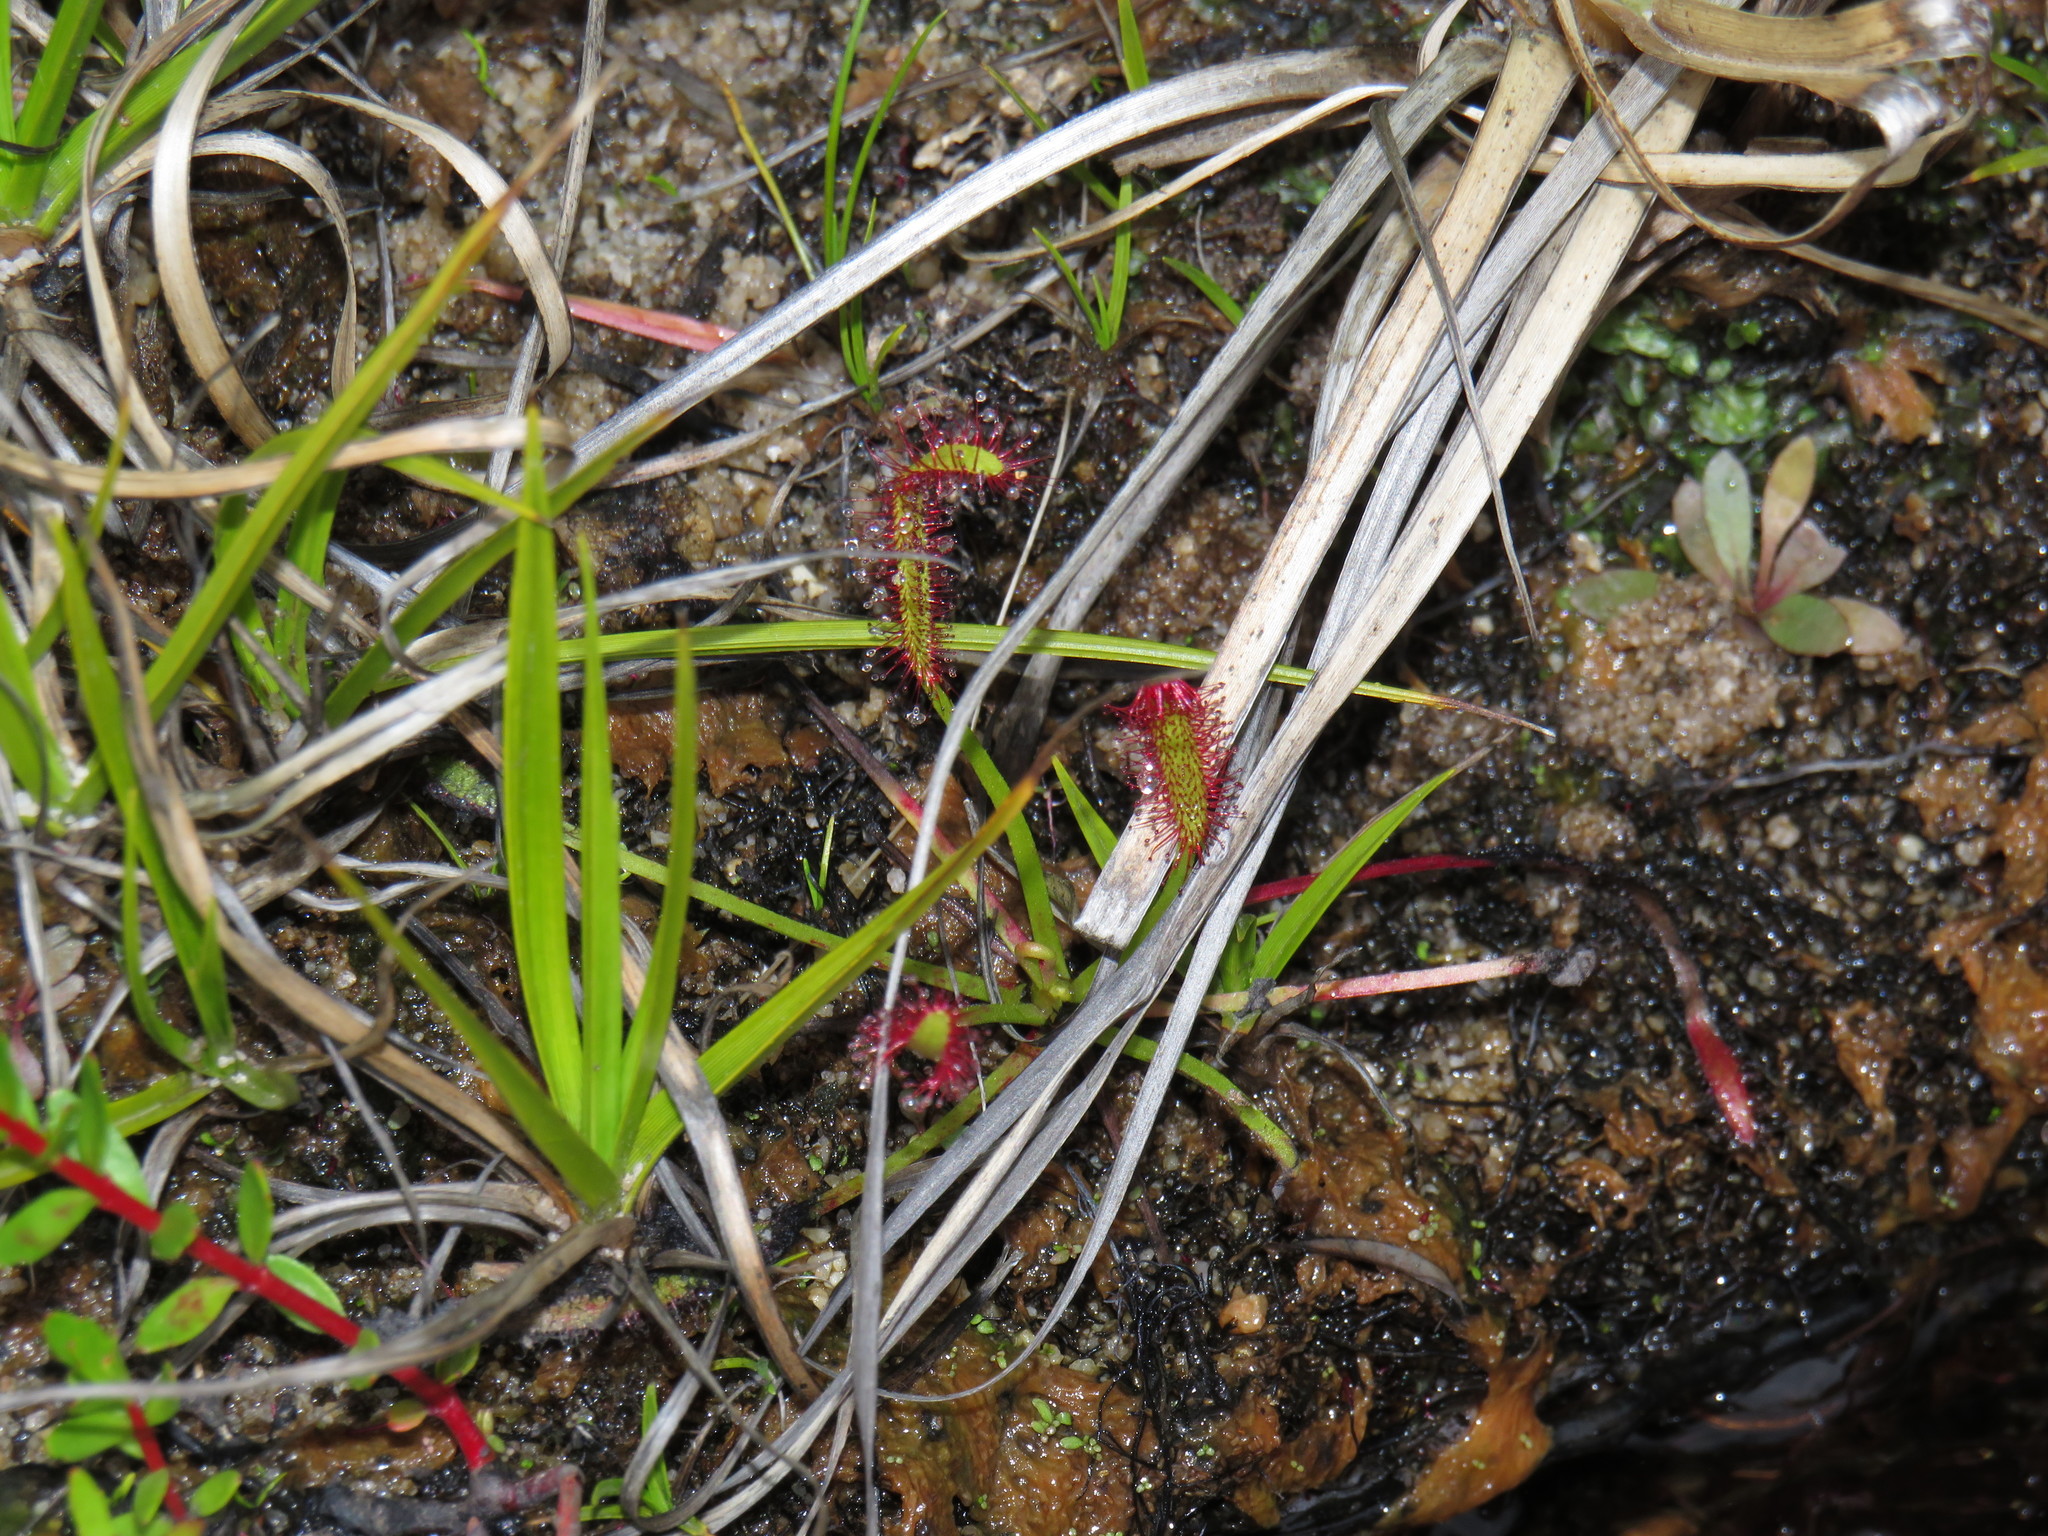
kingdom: Plantae
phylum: Tracheophyta
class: Magnoliopsida
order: Caryophyllales
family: Droseraceae
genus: Drosera
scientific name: Drosera capensis
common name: Cape sundew
